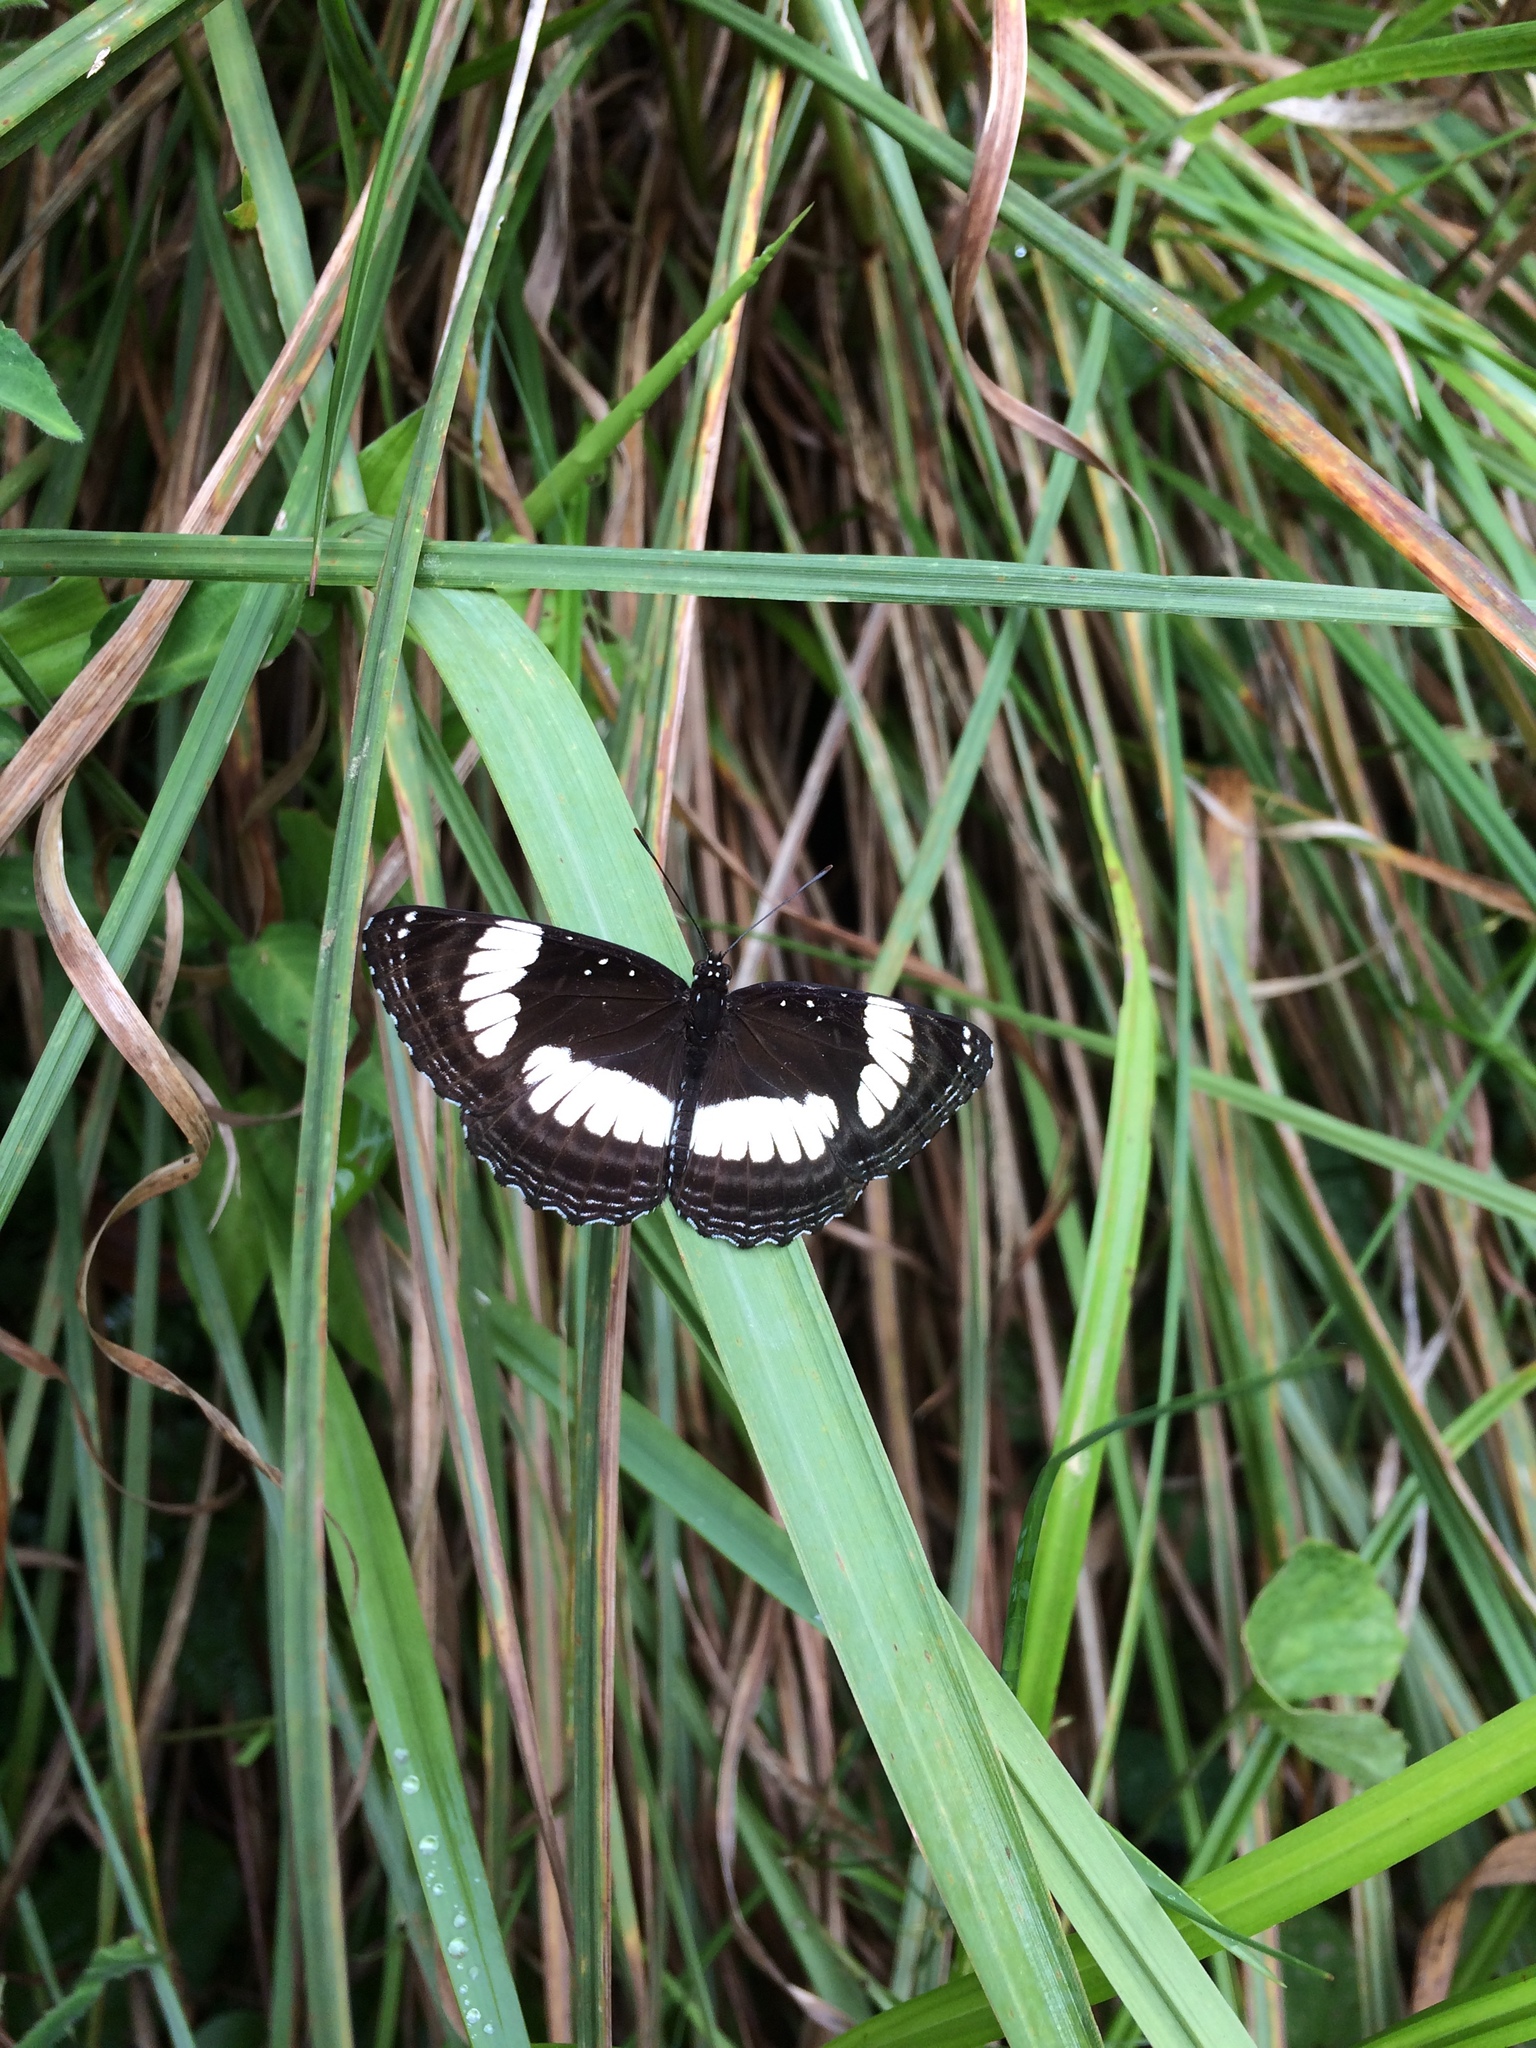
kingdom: Animalia
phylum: Arthropoda
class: Insecta
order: Lepidoptera
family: Nymphalidae
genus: Neptis
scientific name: Neptis laeta
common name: Common barred sailor
